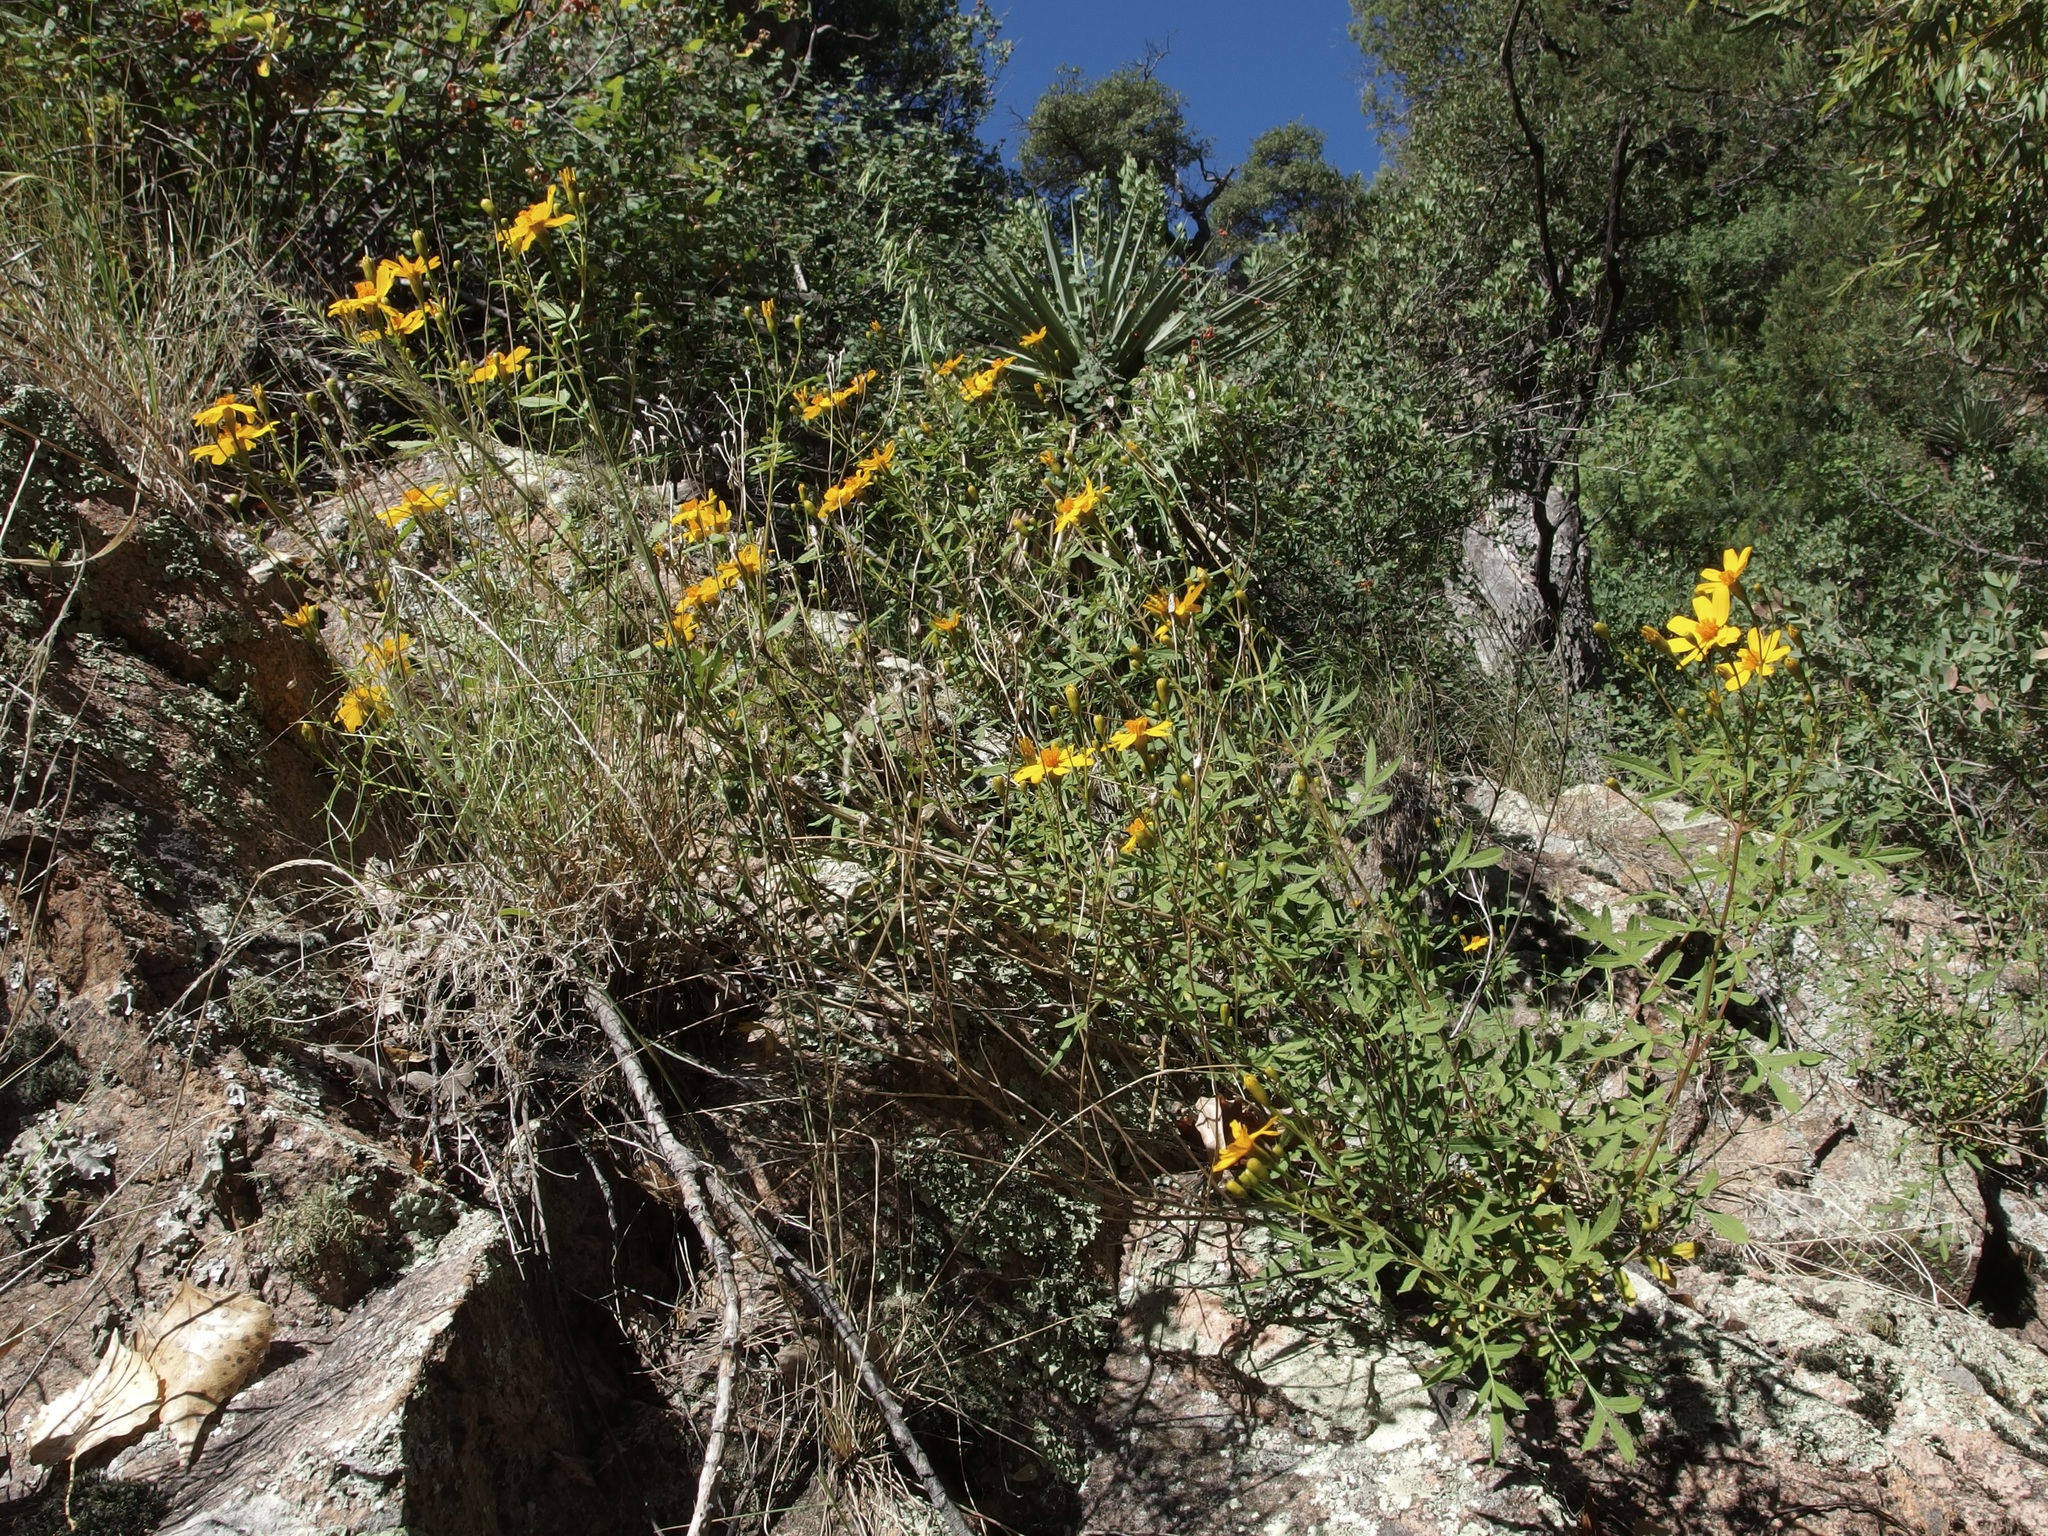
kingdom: Plantae
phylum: Tracheophyta
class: Magnoliopsida
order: Asterales
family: Asteraceae
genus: Tagetes
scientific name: Tagetes lemmonii
